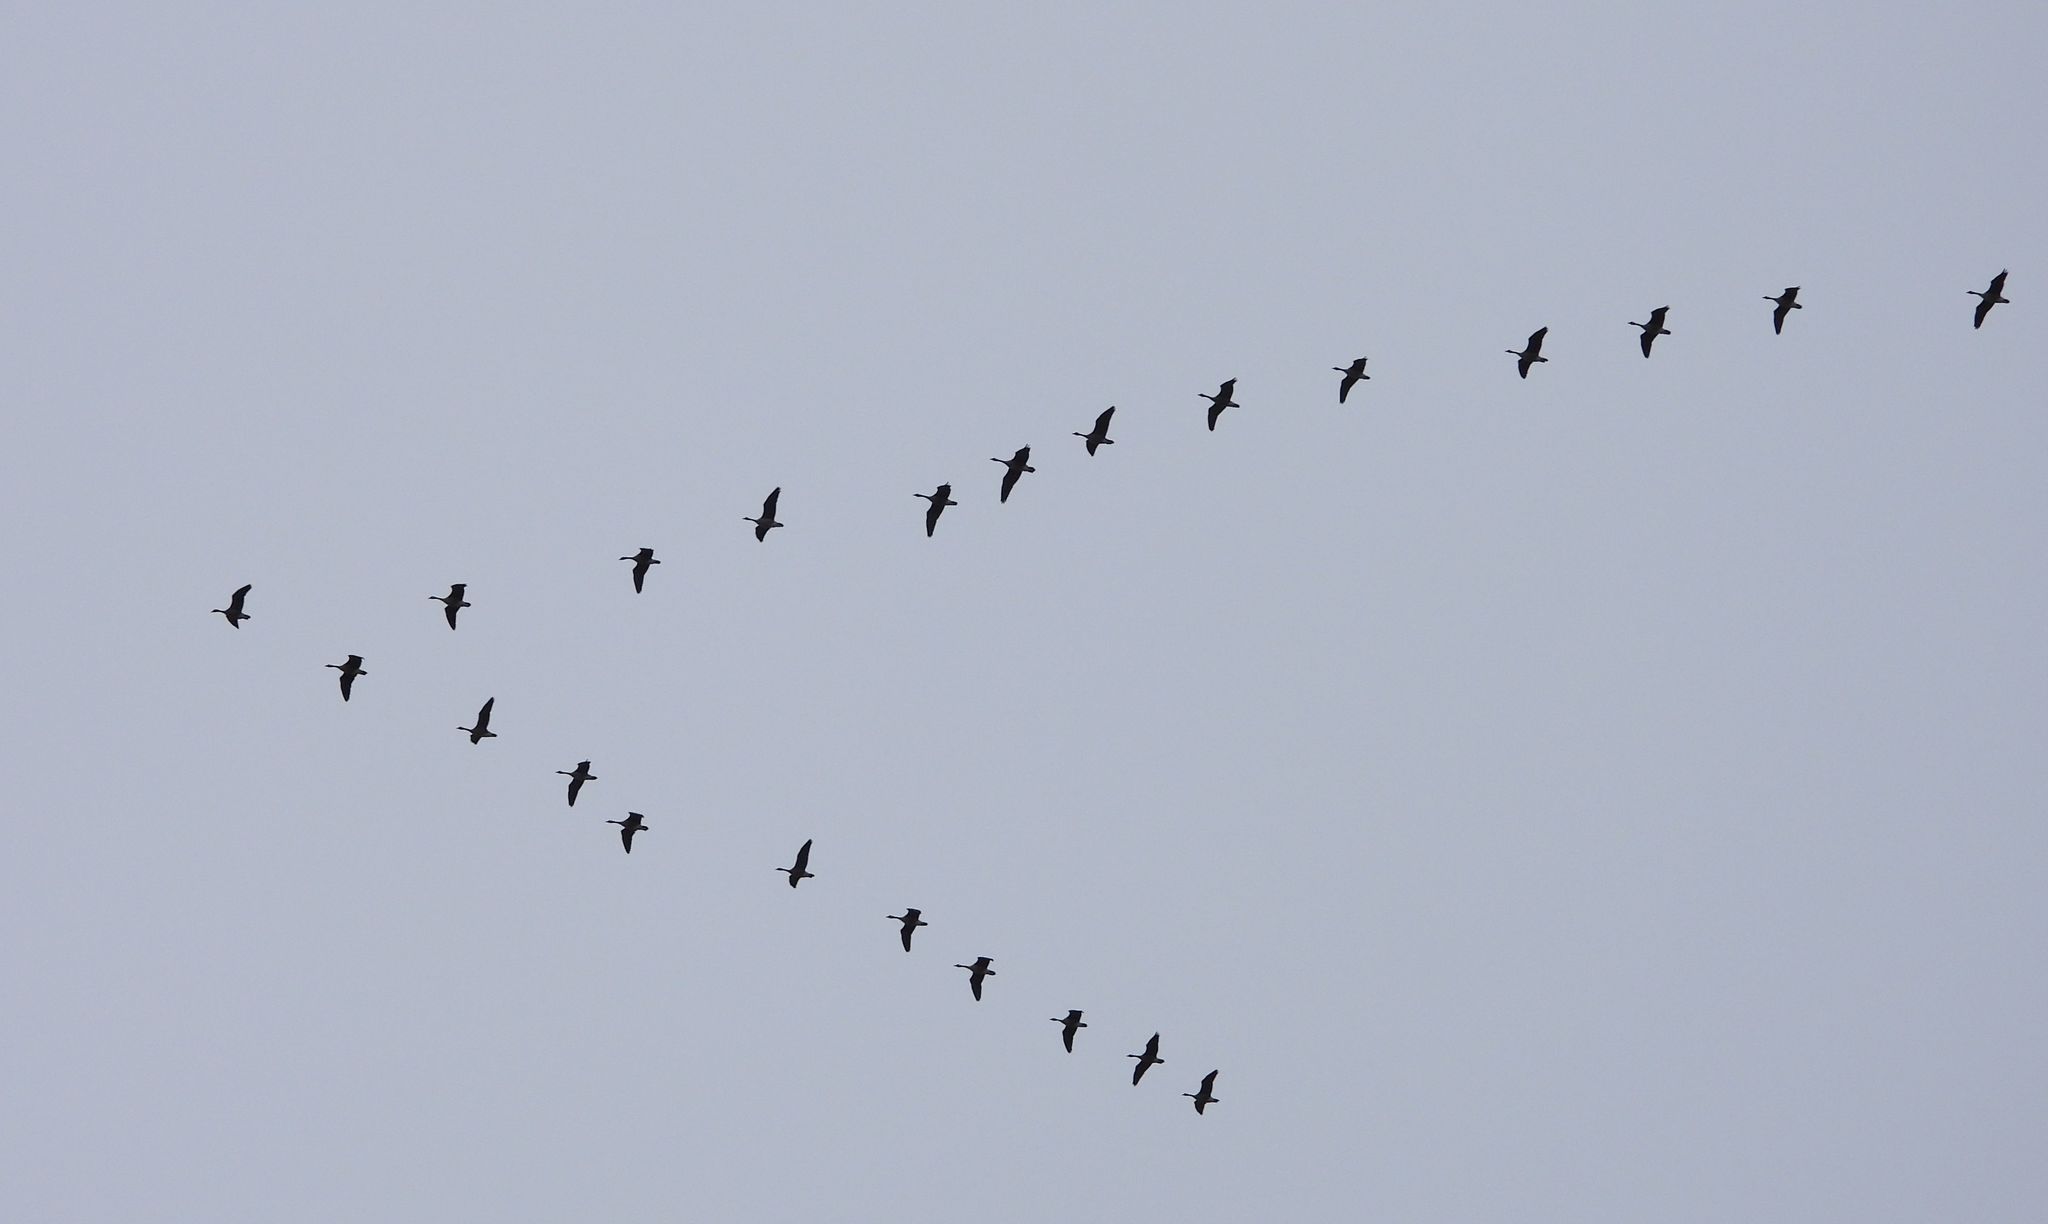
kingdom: Animalia
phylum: Chordata
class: Aves
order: Anseriformes
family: Anatidae
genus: Branta
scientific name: Branta canadensis
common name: Canada goose
